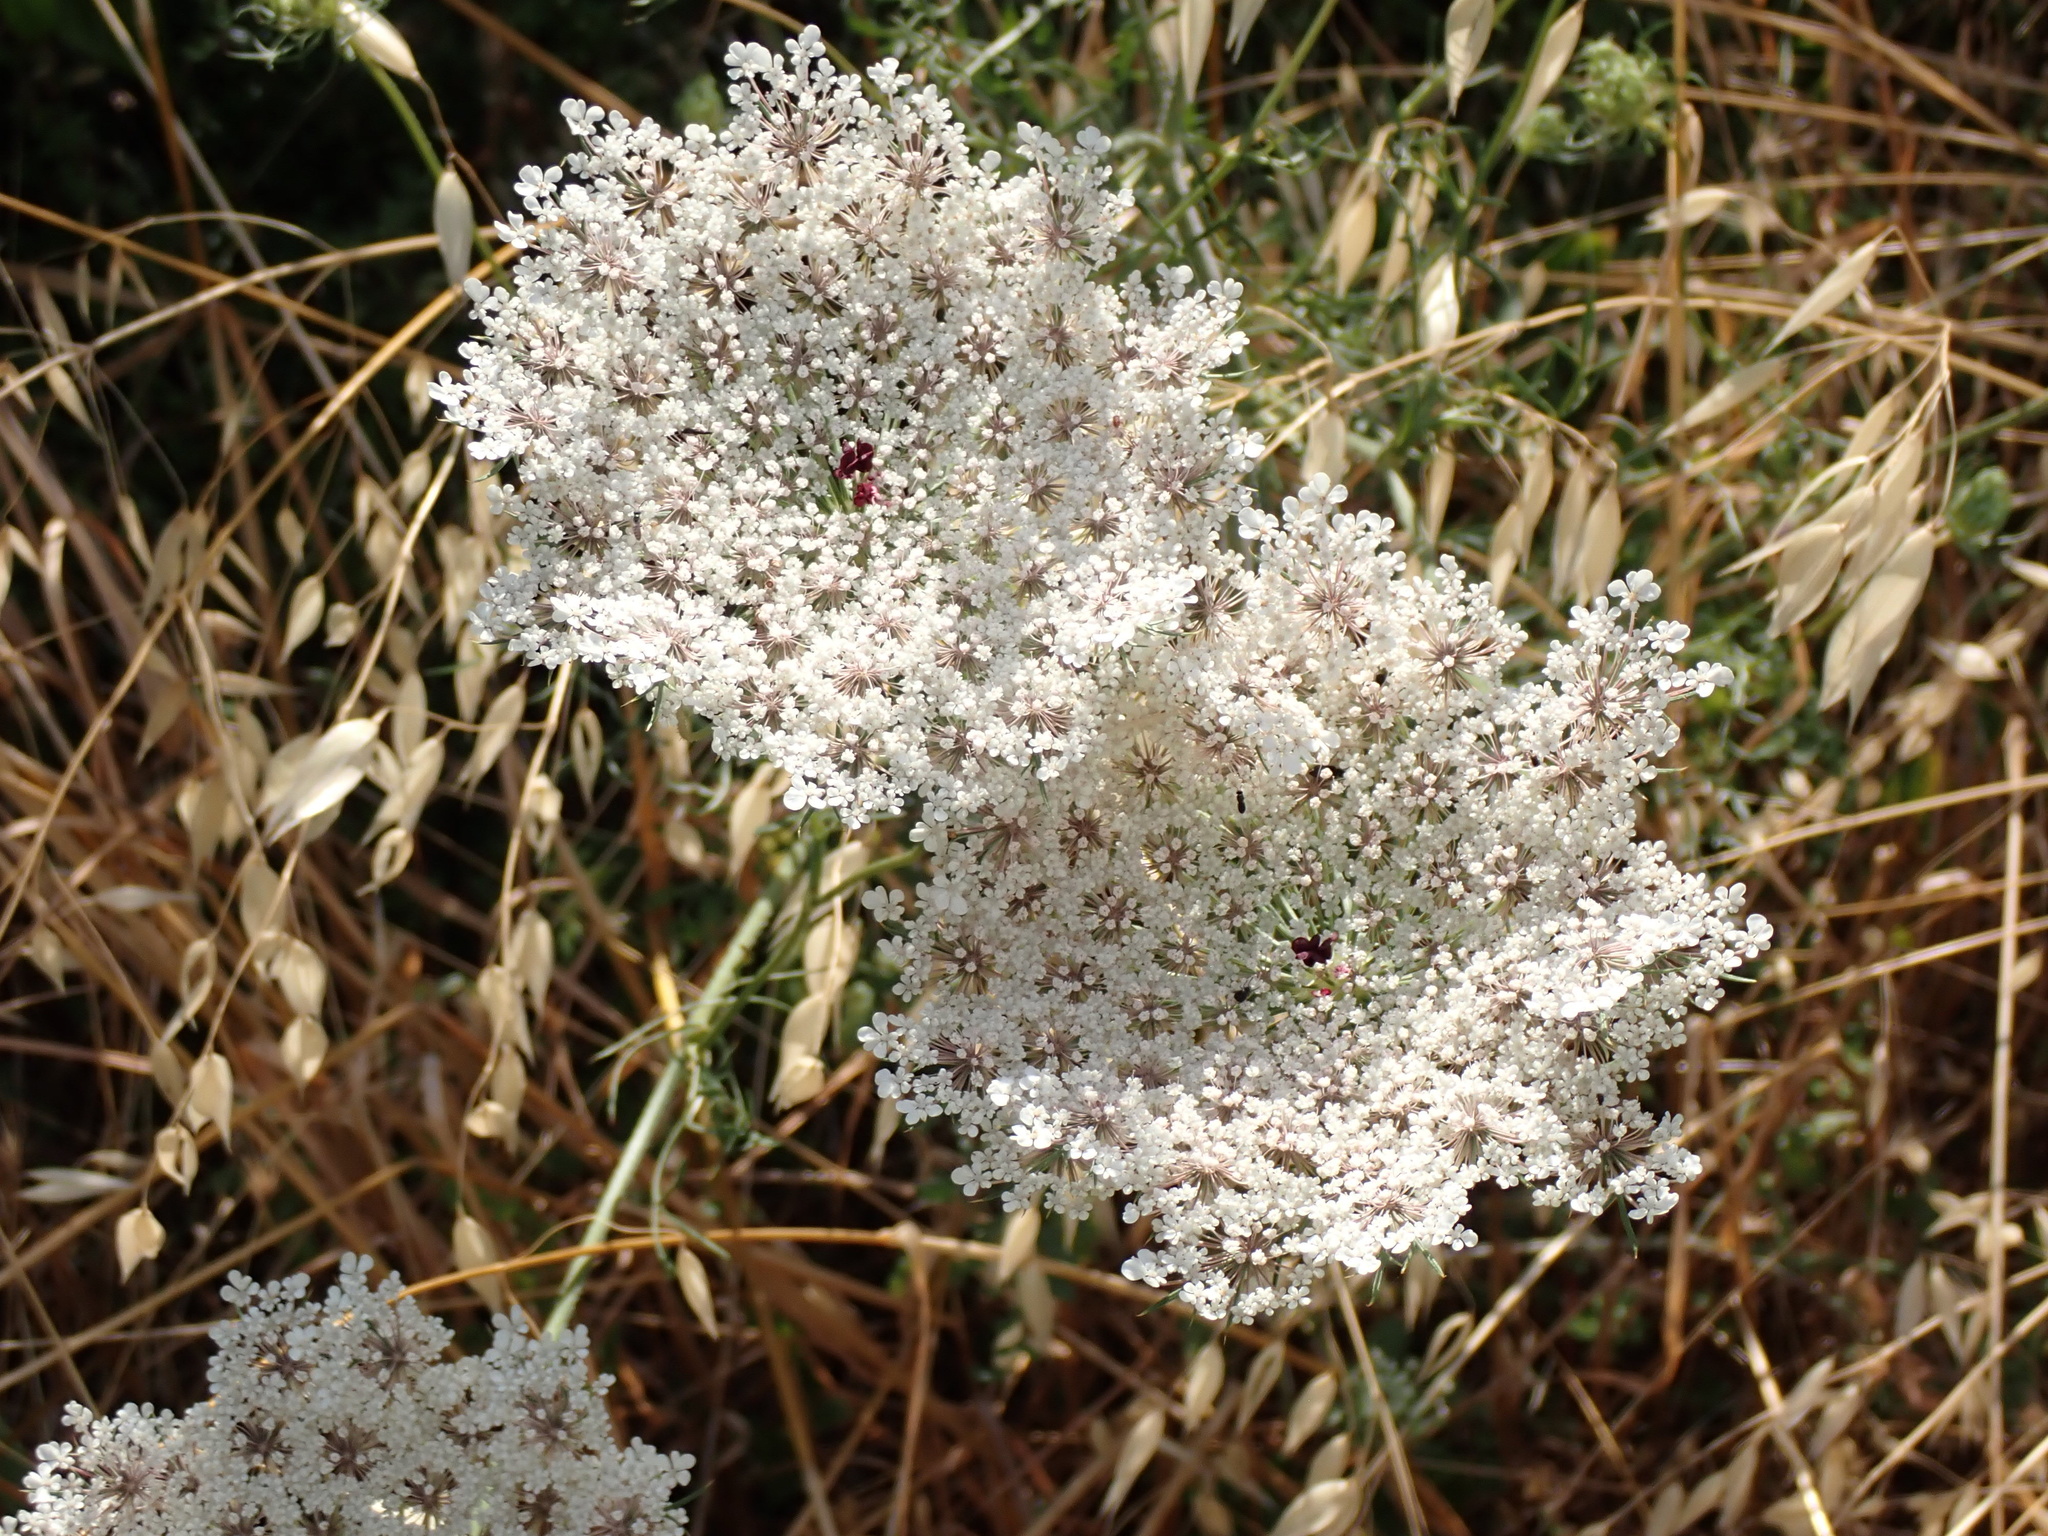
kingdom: Plantae
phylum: Tracheophyta
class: Magnoliopsida
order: Apiales
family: Apiaceae
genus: Daucus
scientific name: Daucus carota
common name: Wild carrot
